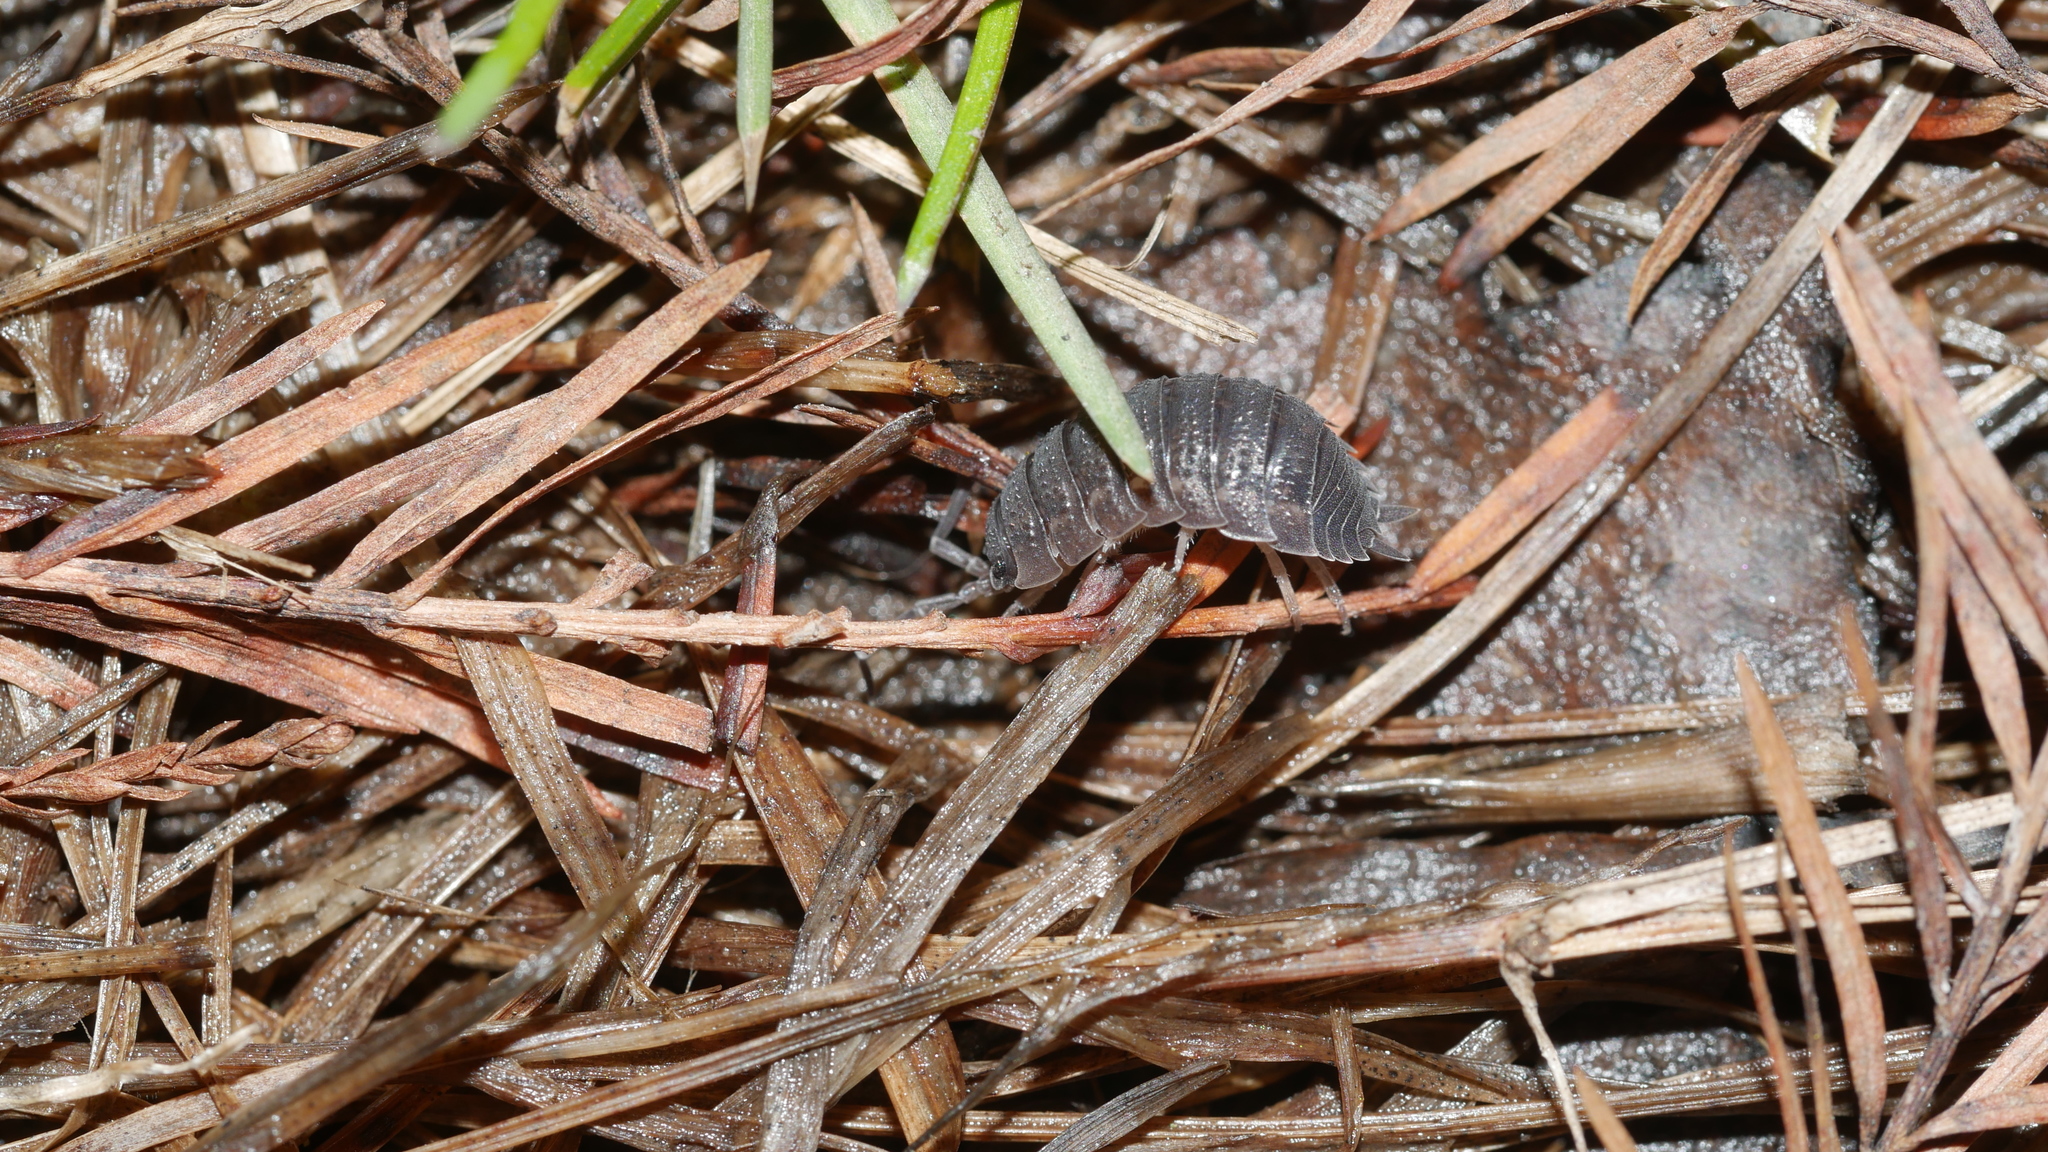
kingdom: Animalia
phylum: Arthropoda
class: Malacostraca
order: Isopoda
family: Porcellionidae
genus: Porcellio
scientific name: Porcellio scaber
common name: Common rough woodlouse
